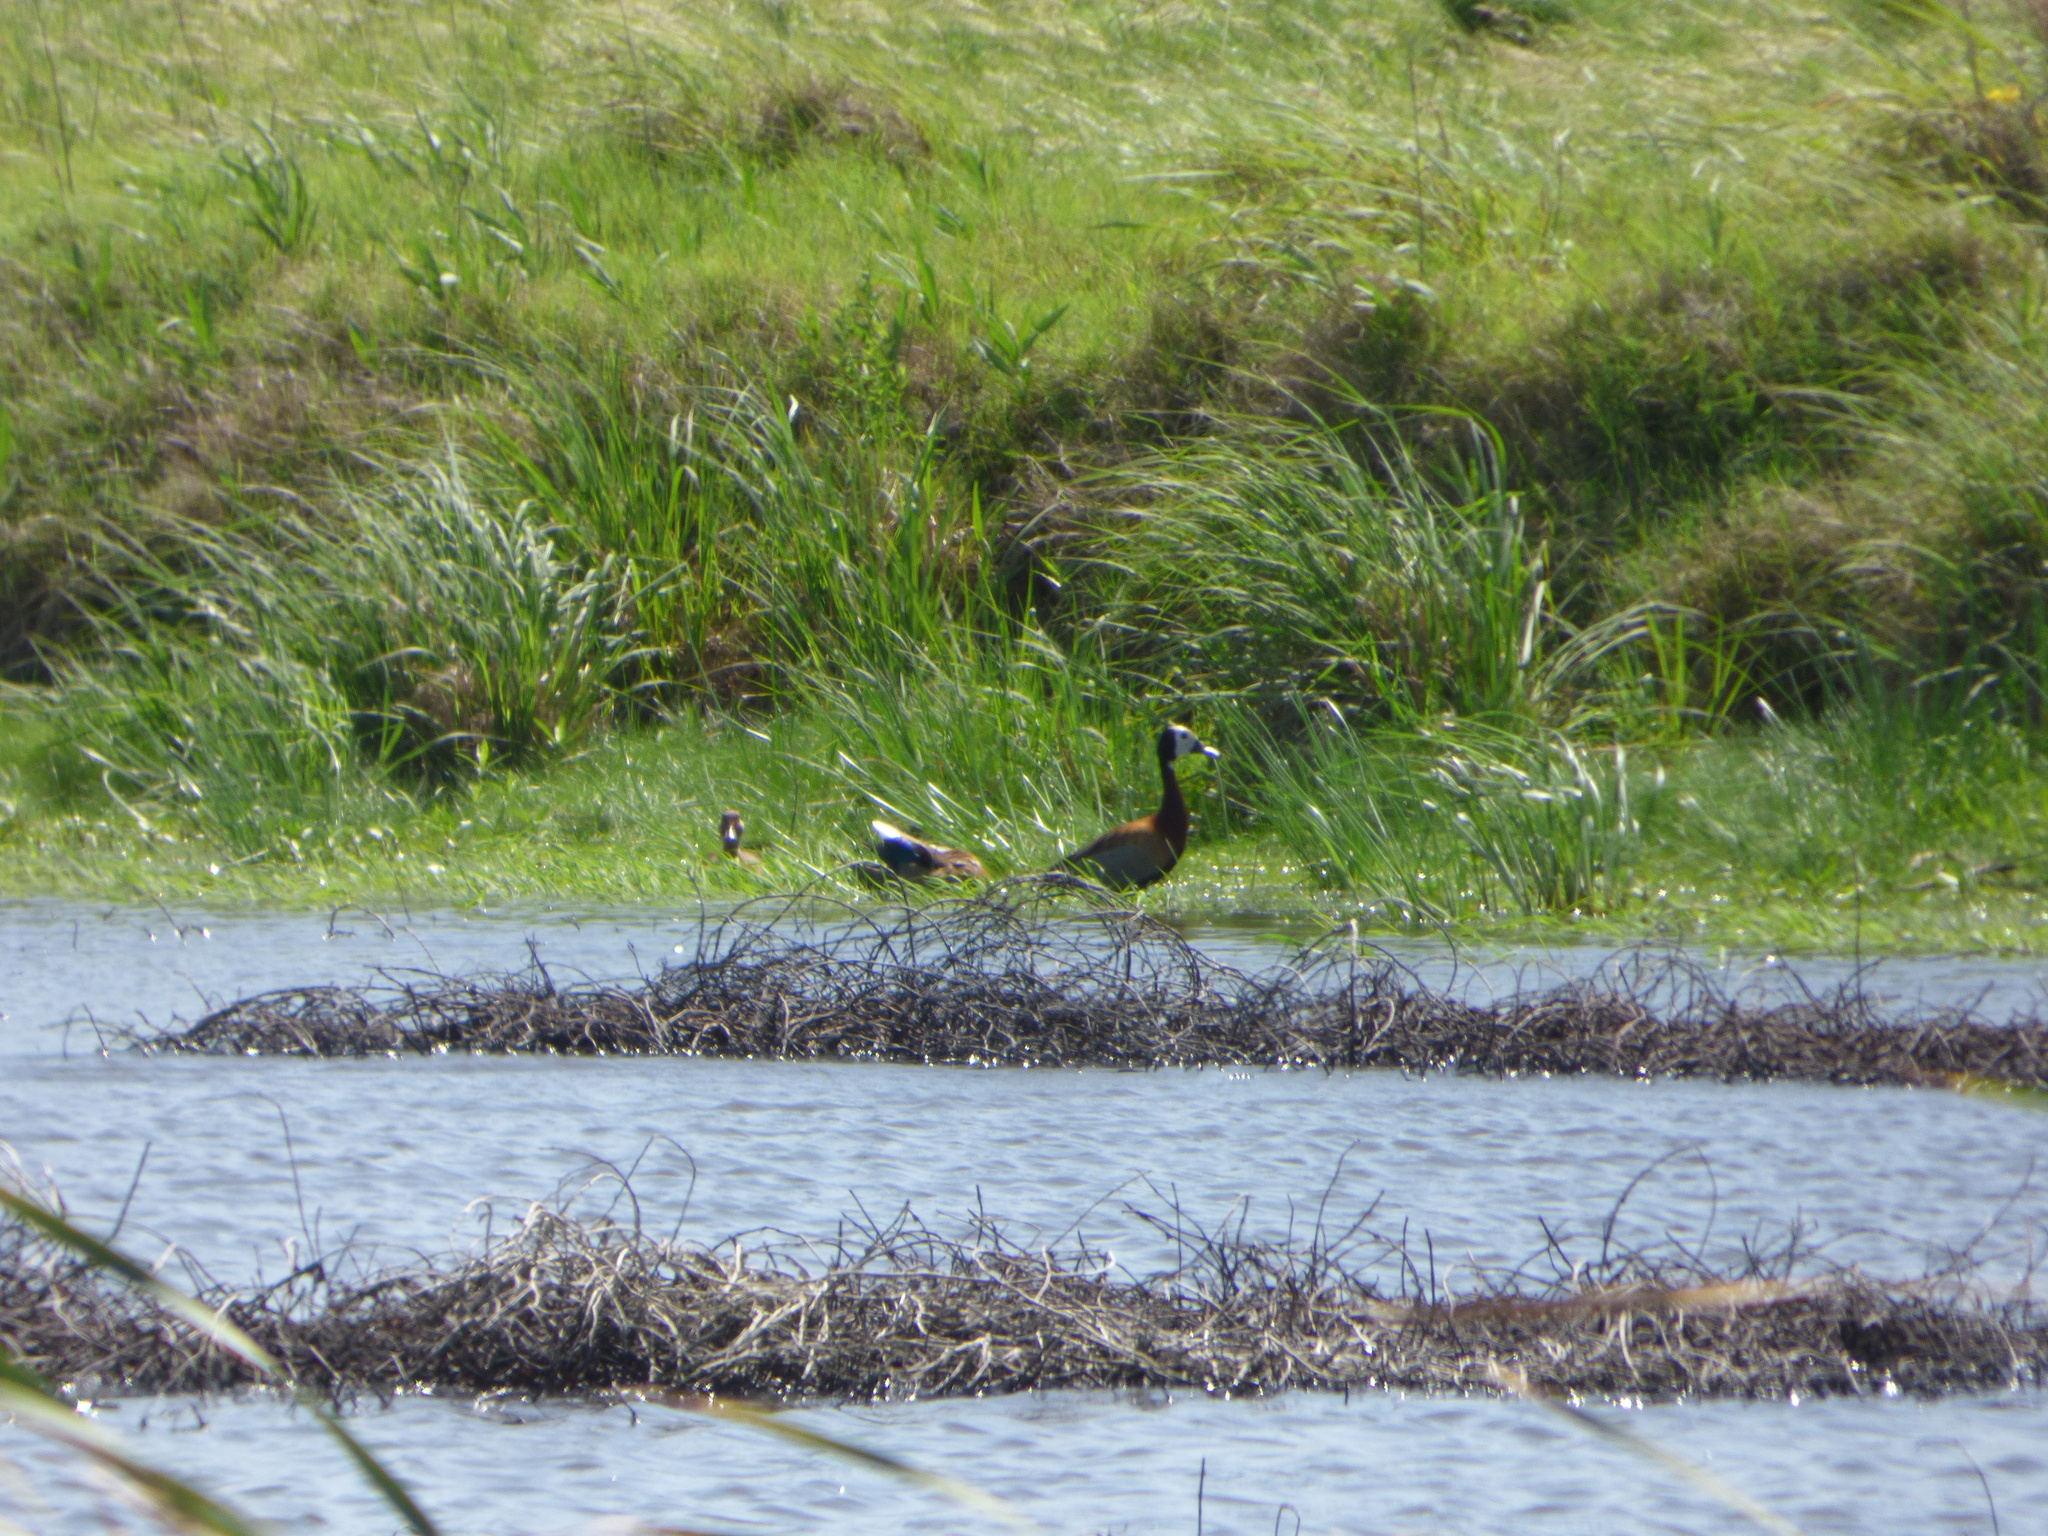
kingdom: Animalia
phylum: Chordata
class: Aves
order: Anseriformes
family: Anatidae
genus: Dendrocygna
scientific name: Dendrocygna viduata
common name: White-faced whistling duck
